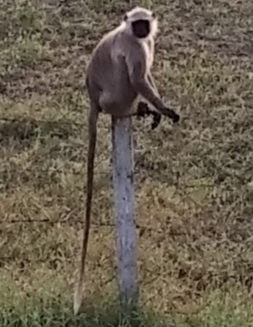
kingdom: Animalia
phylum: Chordata
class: Mammalia
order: Primates
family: Cercopithecidae
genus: Semnopithecus
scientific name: Semnopithecus entellus
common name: Northern plains gray langur
